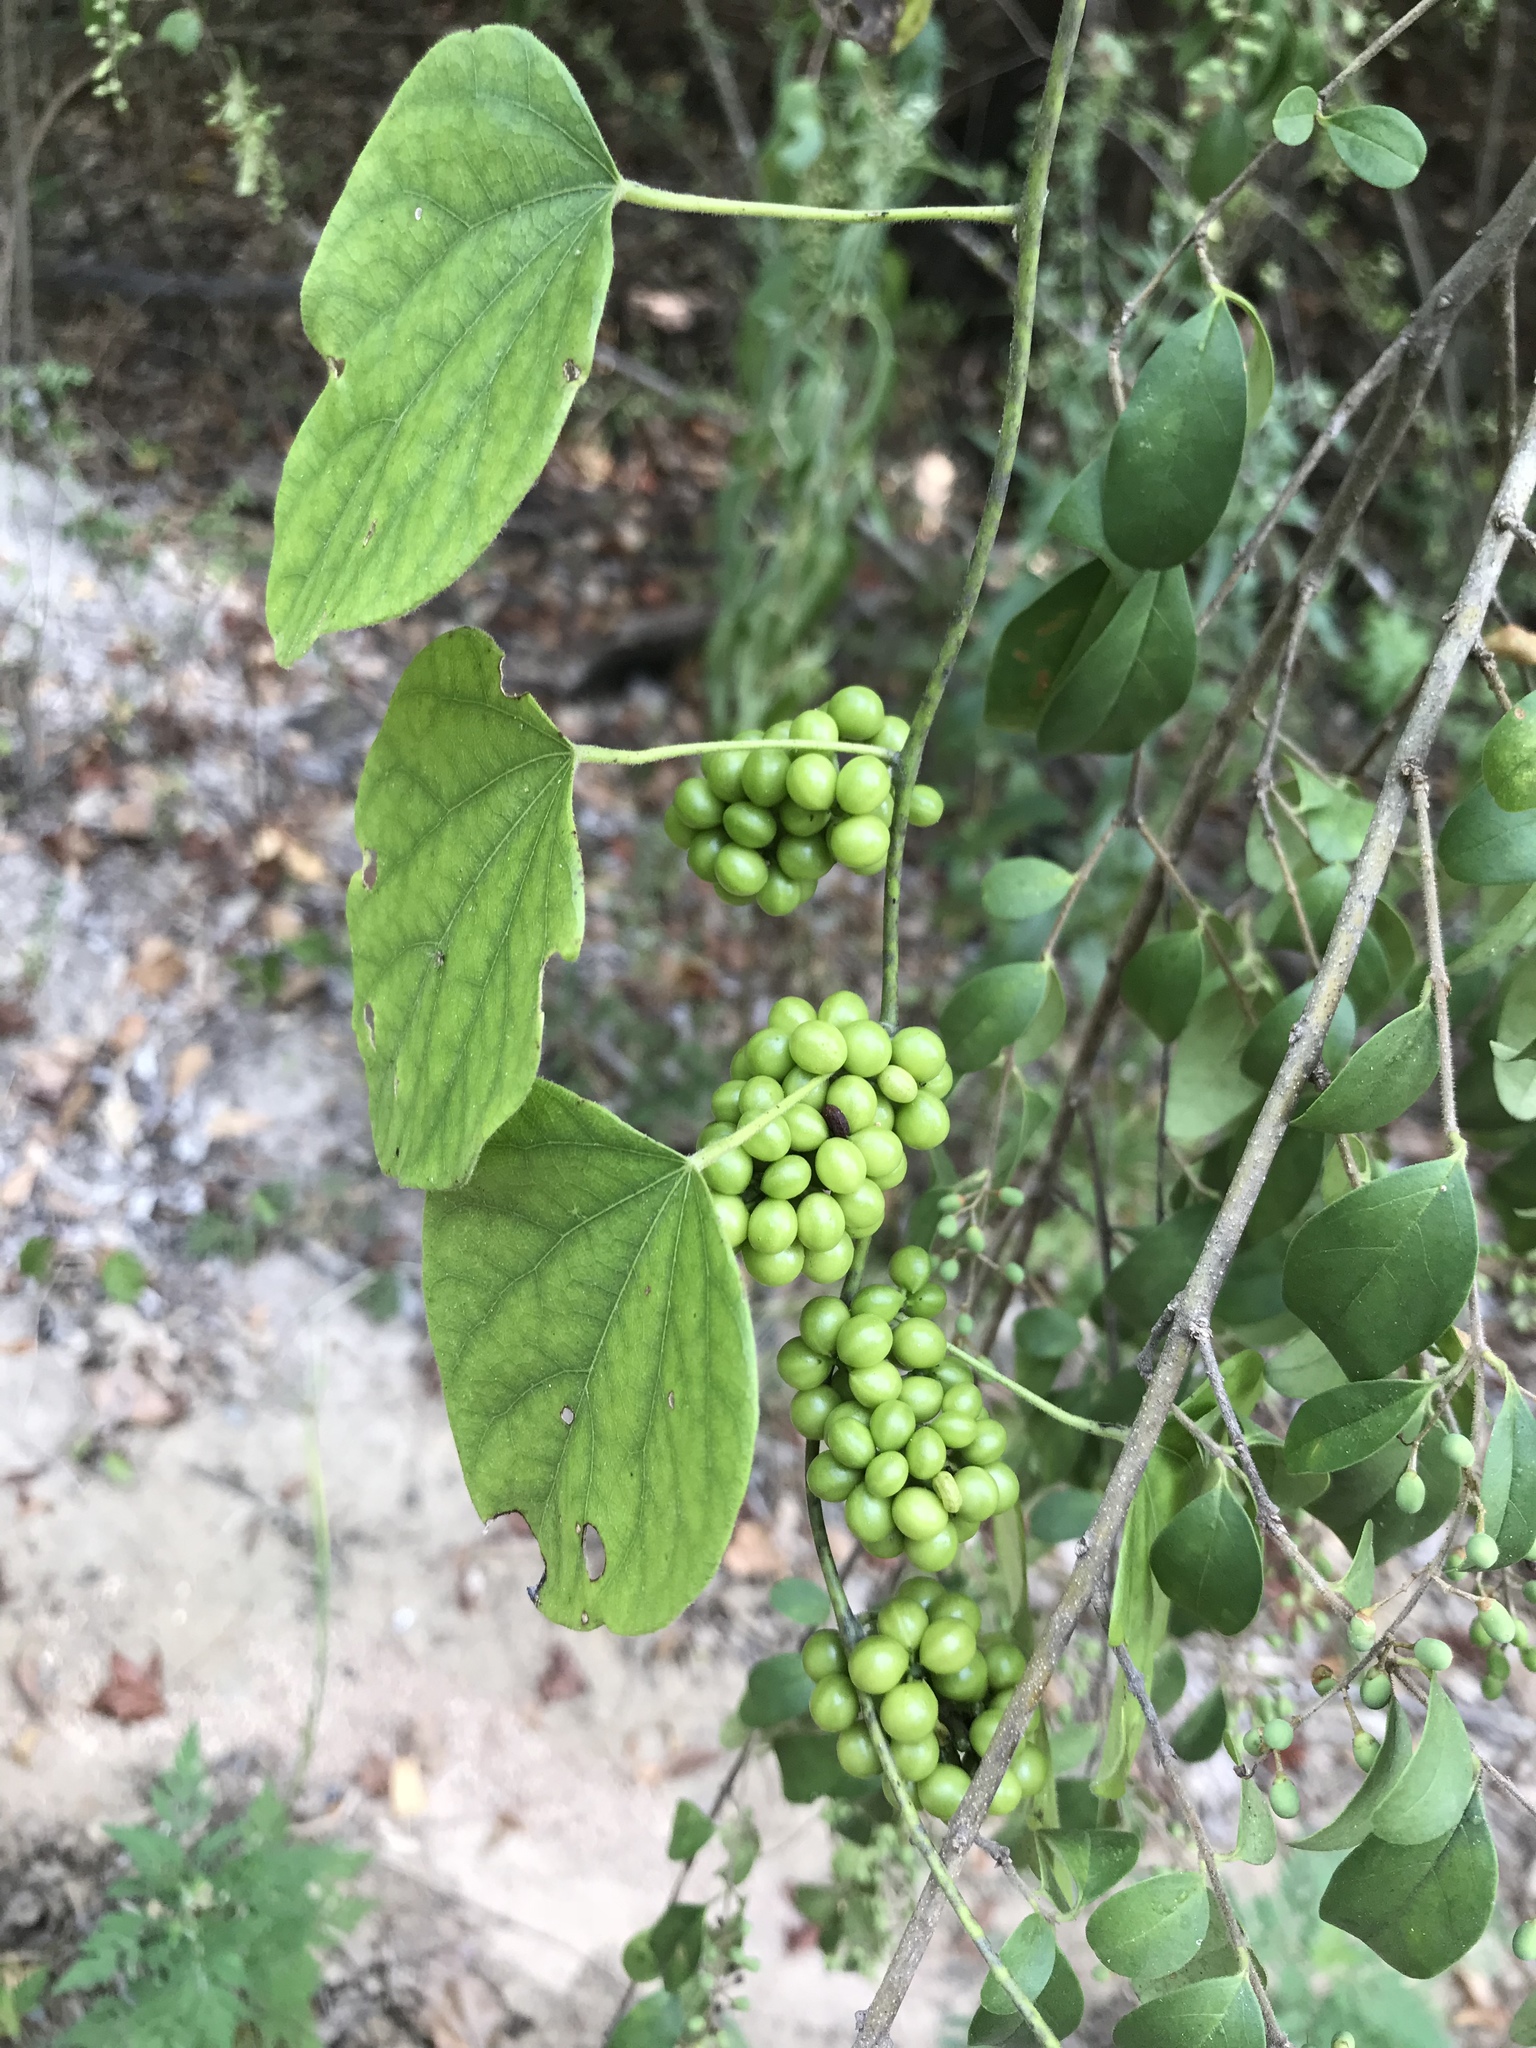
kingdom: Plantae
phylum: Tracheophyta
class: Magnoliopsida
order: Ranunculales
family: Menispermaceae
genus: Cocculus
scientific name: Cocculus carolinus
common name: Carolina moonseed
